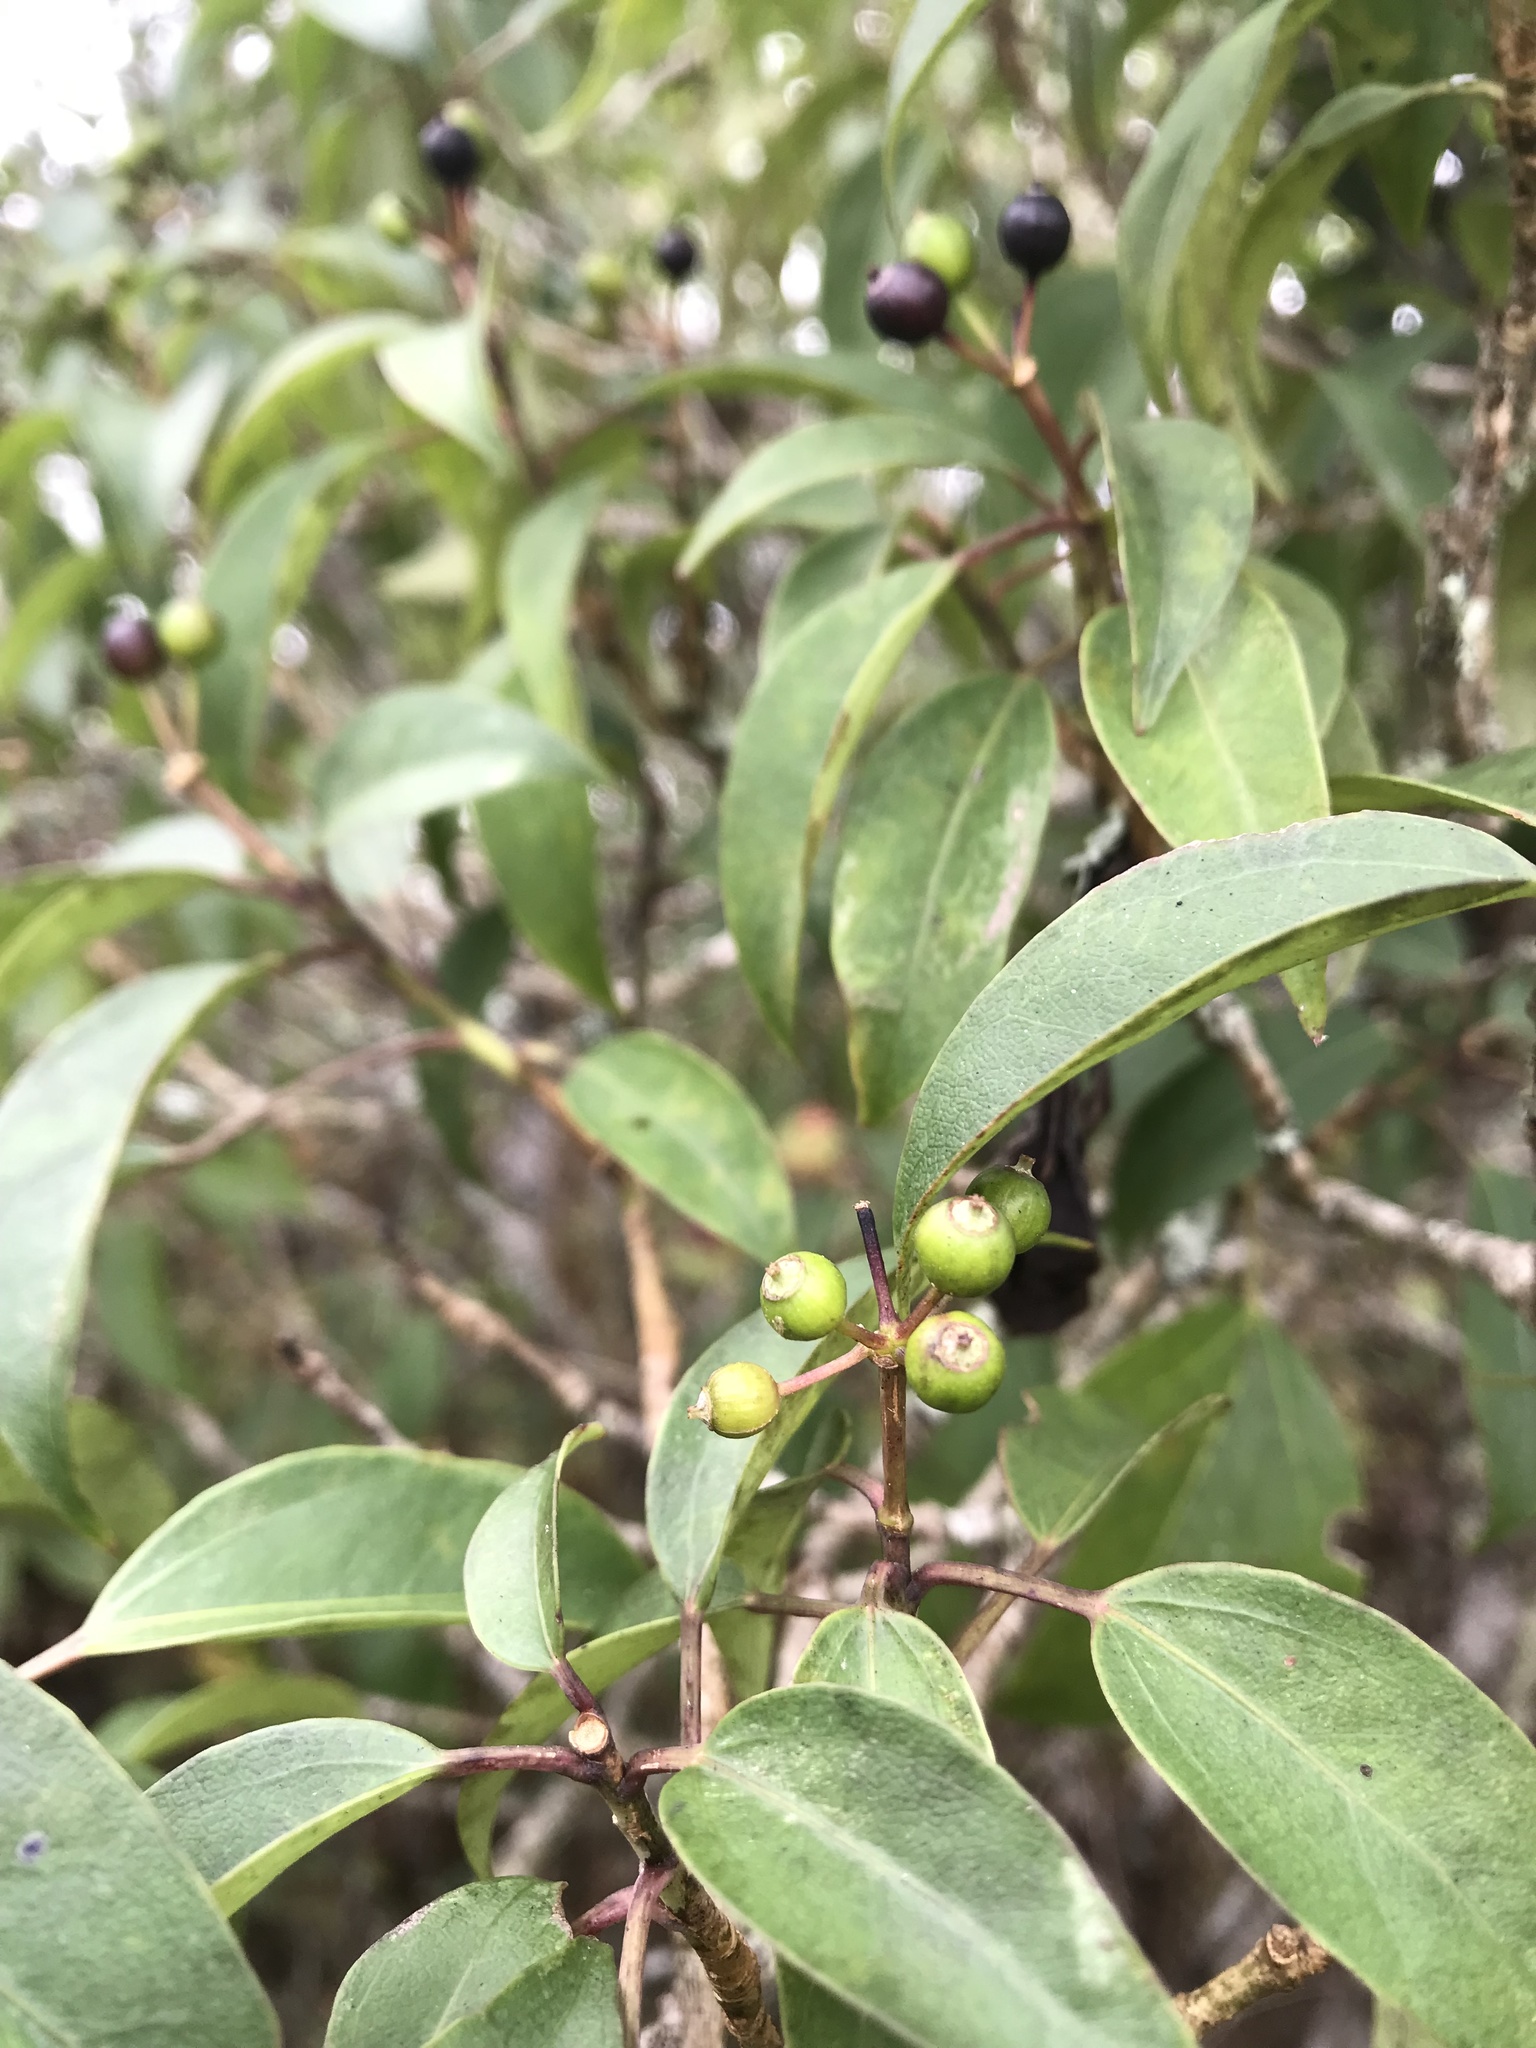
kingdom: Plantae
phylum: Tracheophyta
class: Magnoliopsida
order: Apiales
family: Araliaceae
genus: Dendropanax
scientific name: Dendropanax dentiger
